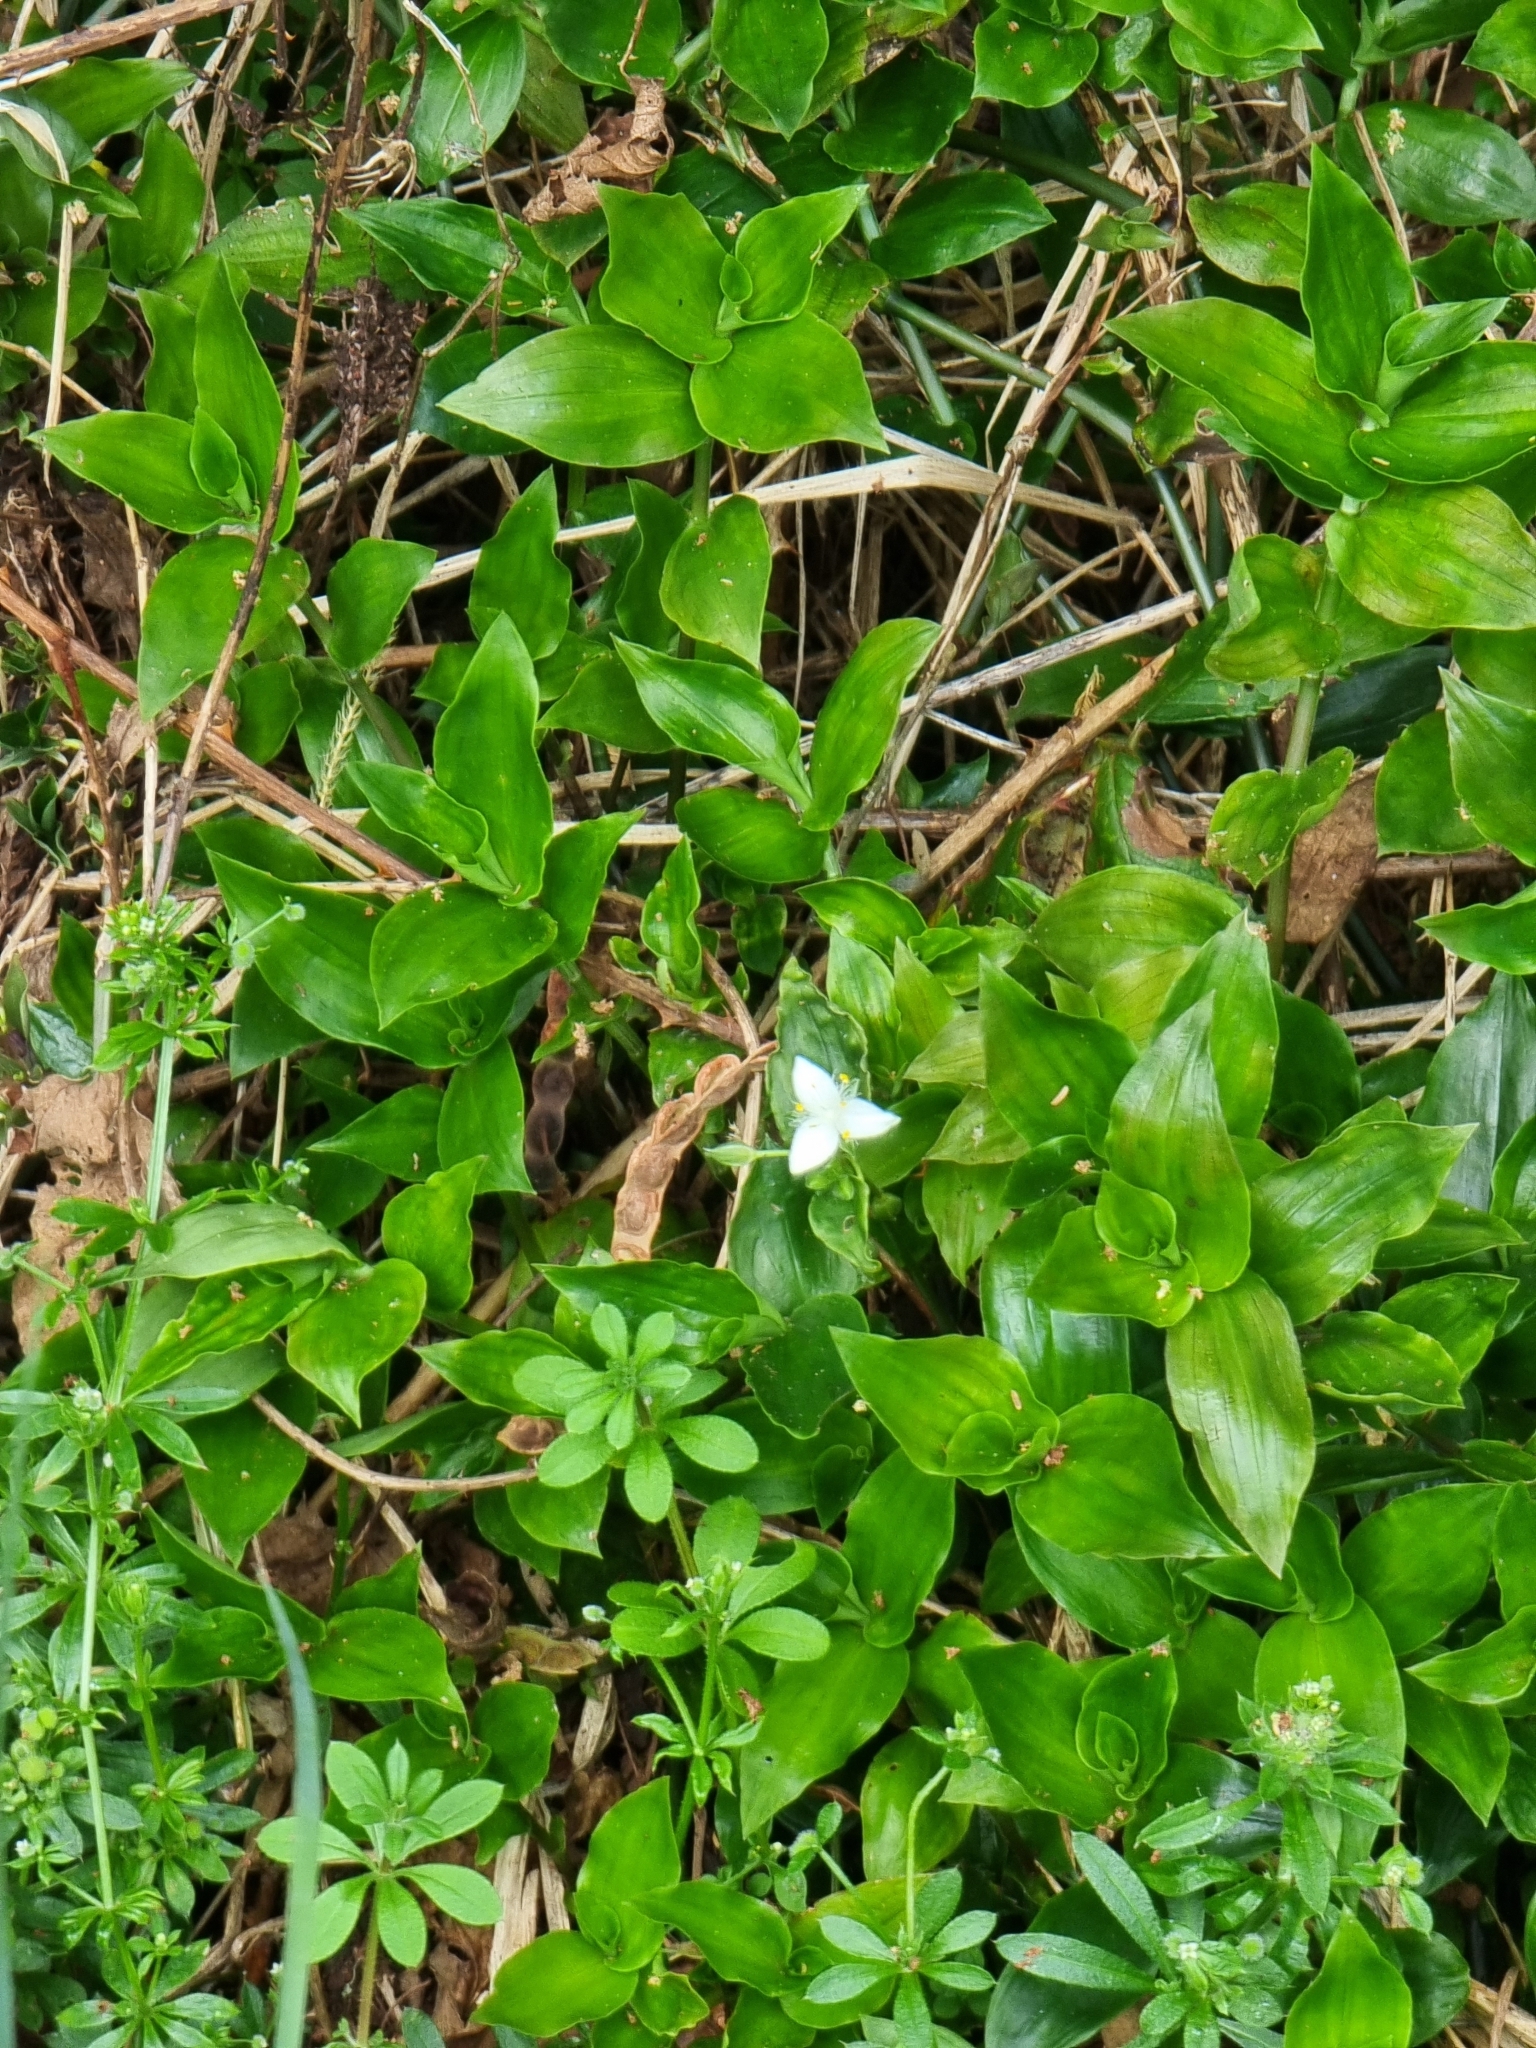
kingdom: Plantae
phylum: Tracheophyta
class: Liliopsida
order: Commelinales
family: Commelinaceae
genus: Tradescantia
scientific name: Tradescantia fluminensis
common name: Wandering-jew
